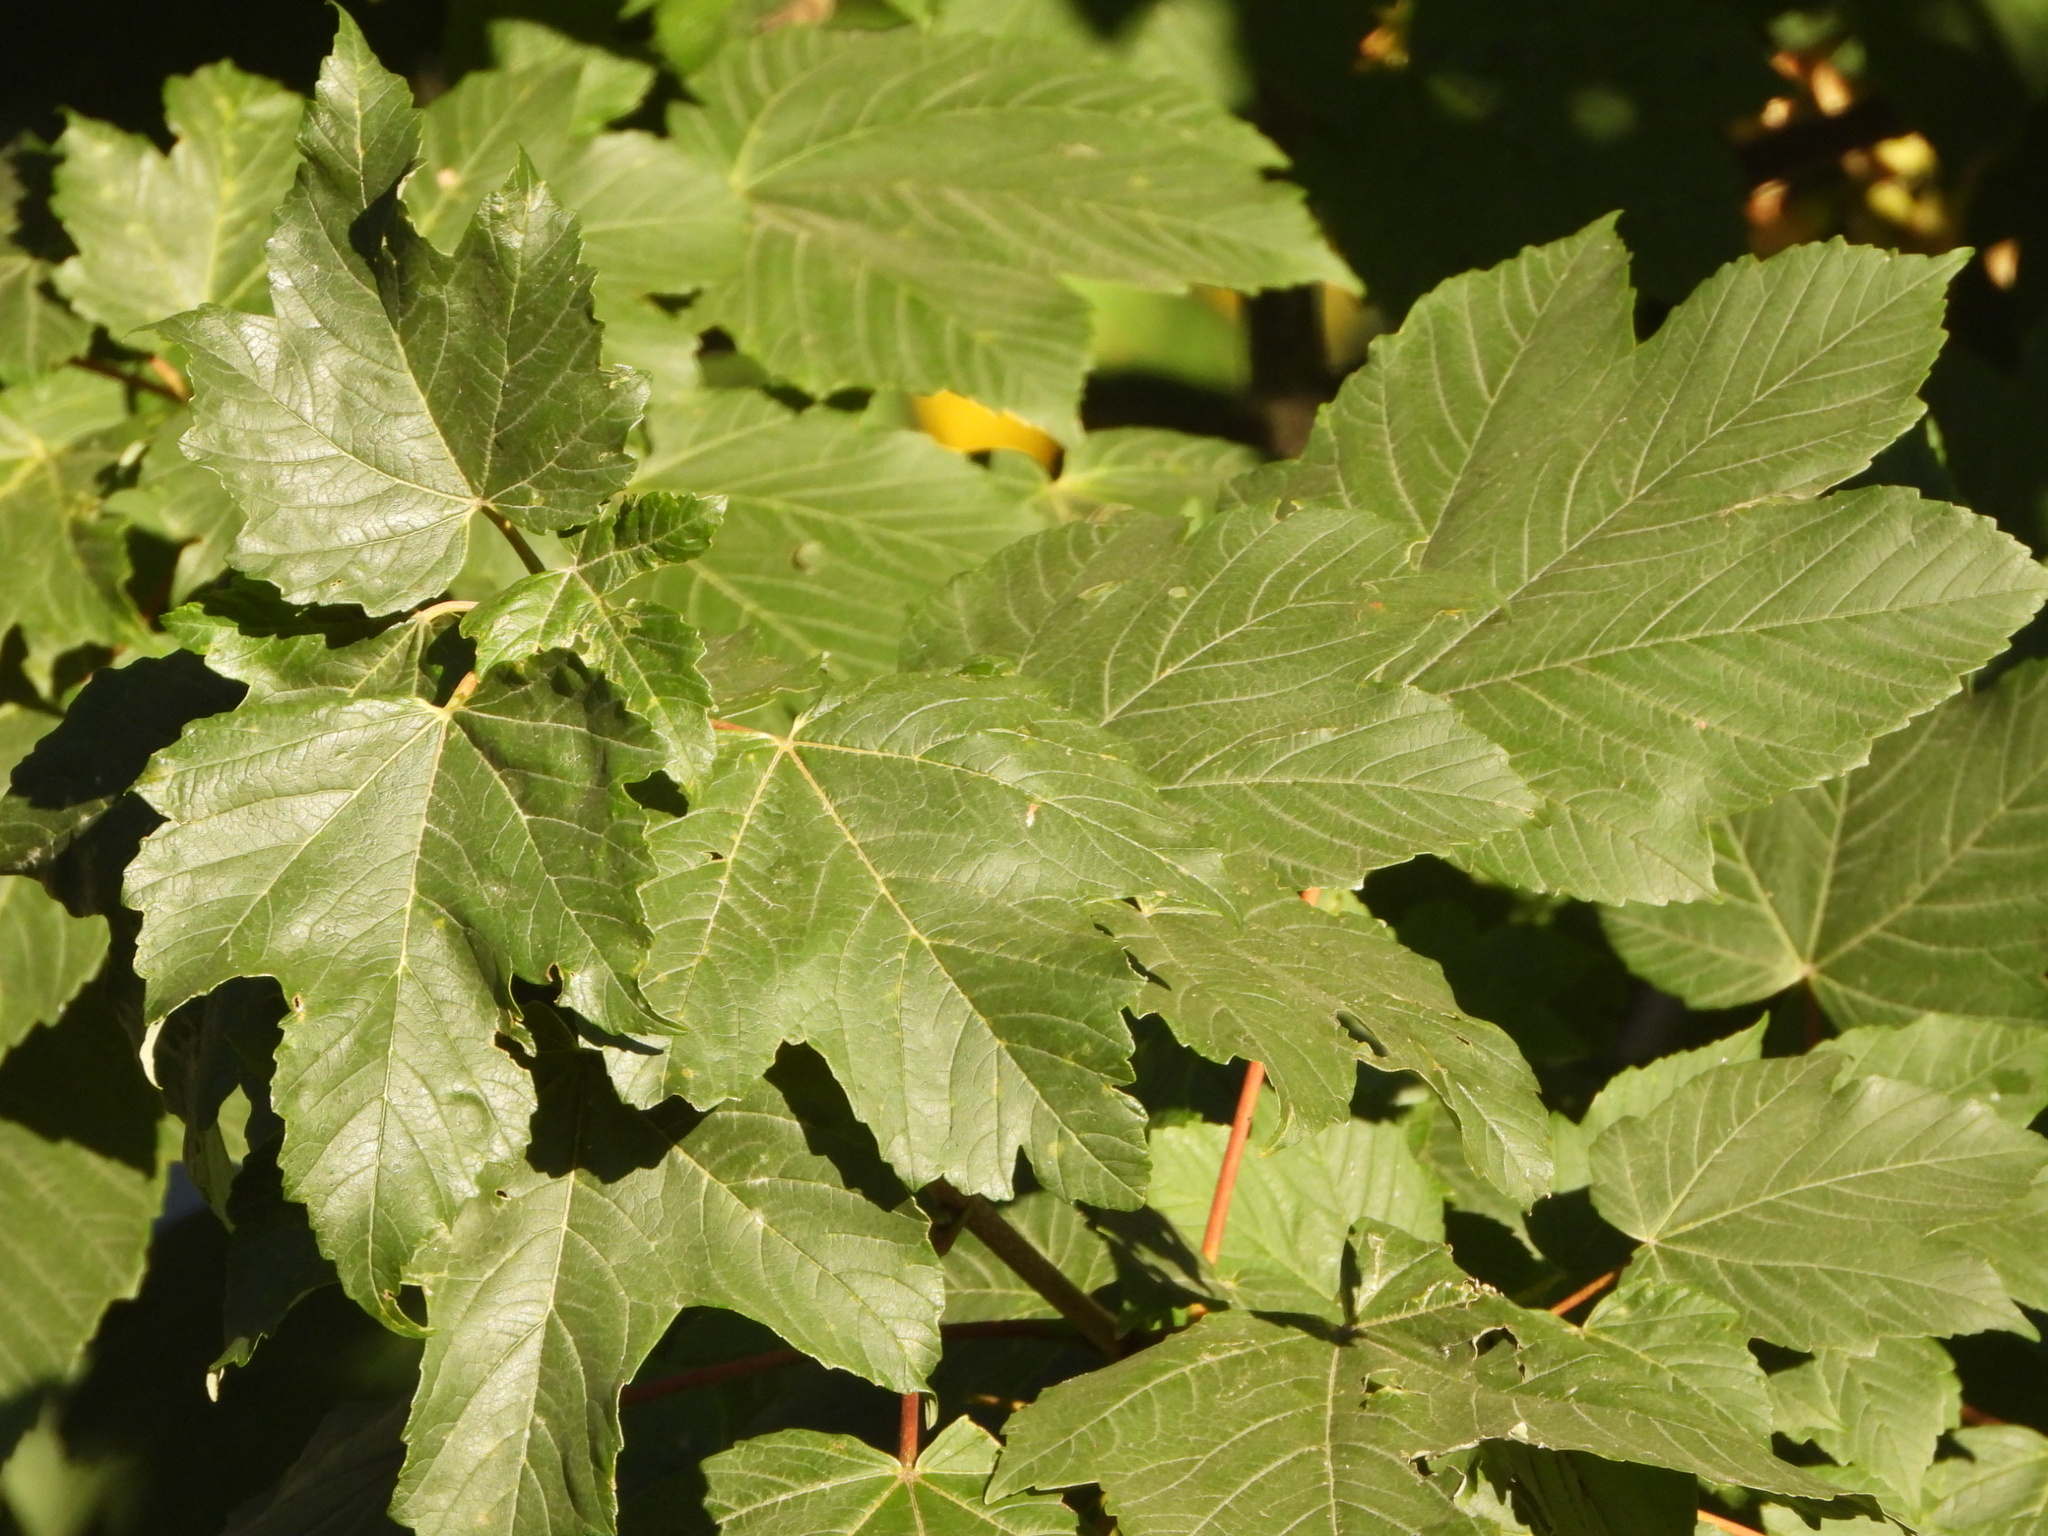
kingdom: Plantae
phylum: Tracheophyta
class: Magnoliopsida
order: Sapindales
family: Sapindaceae
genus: Acer
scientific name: Acer pseudoplatanus
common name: Sycamore
